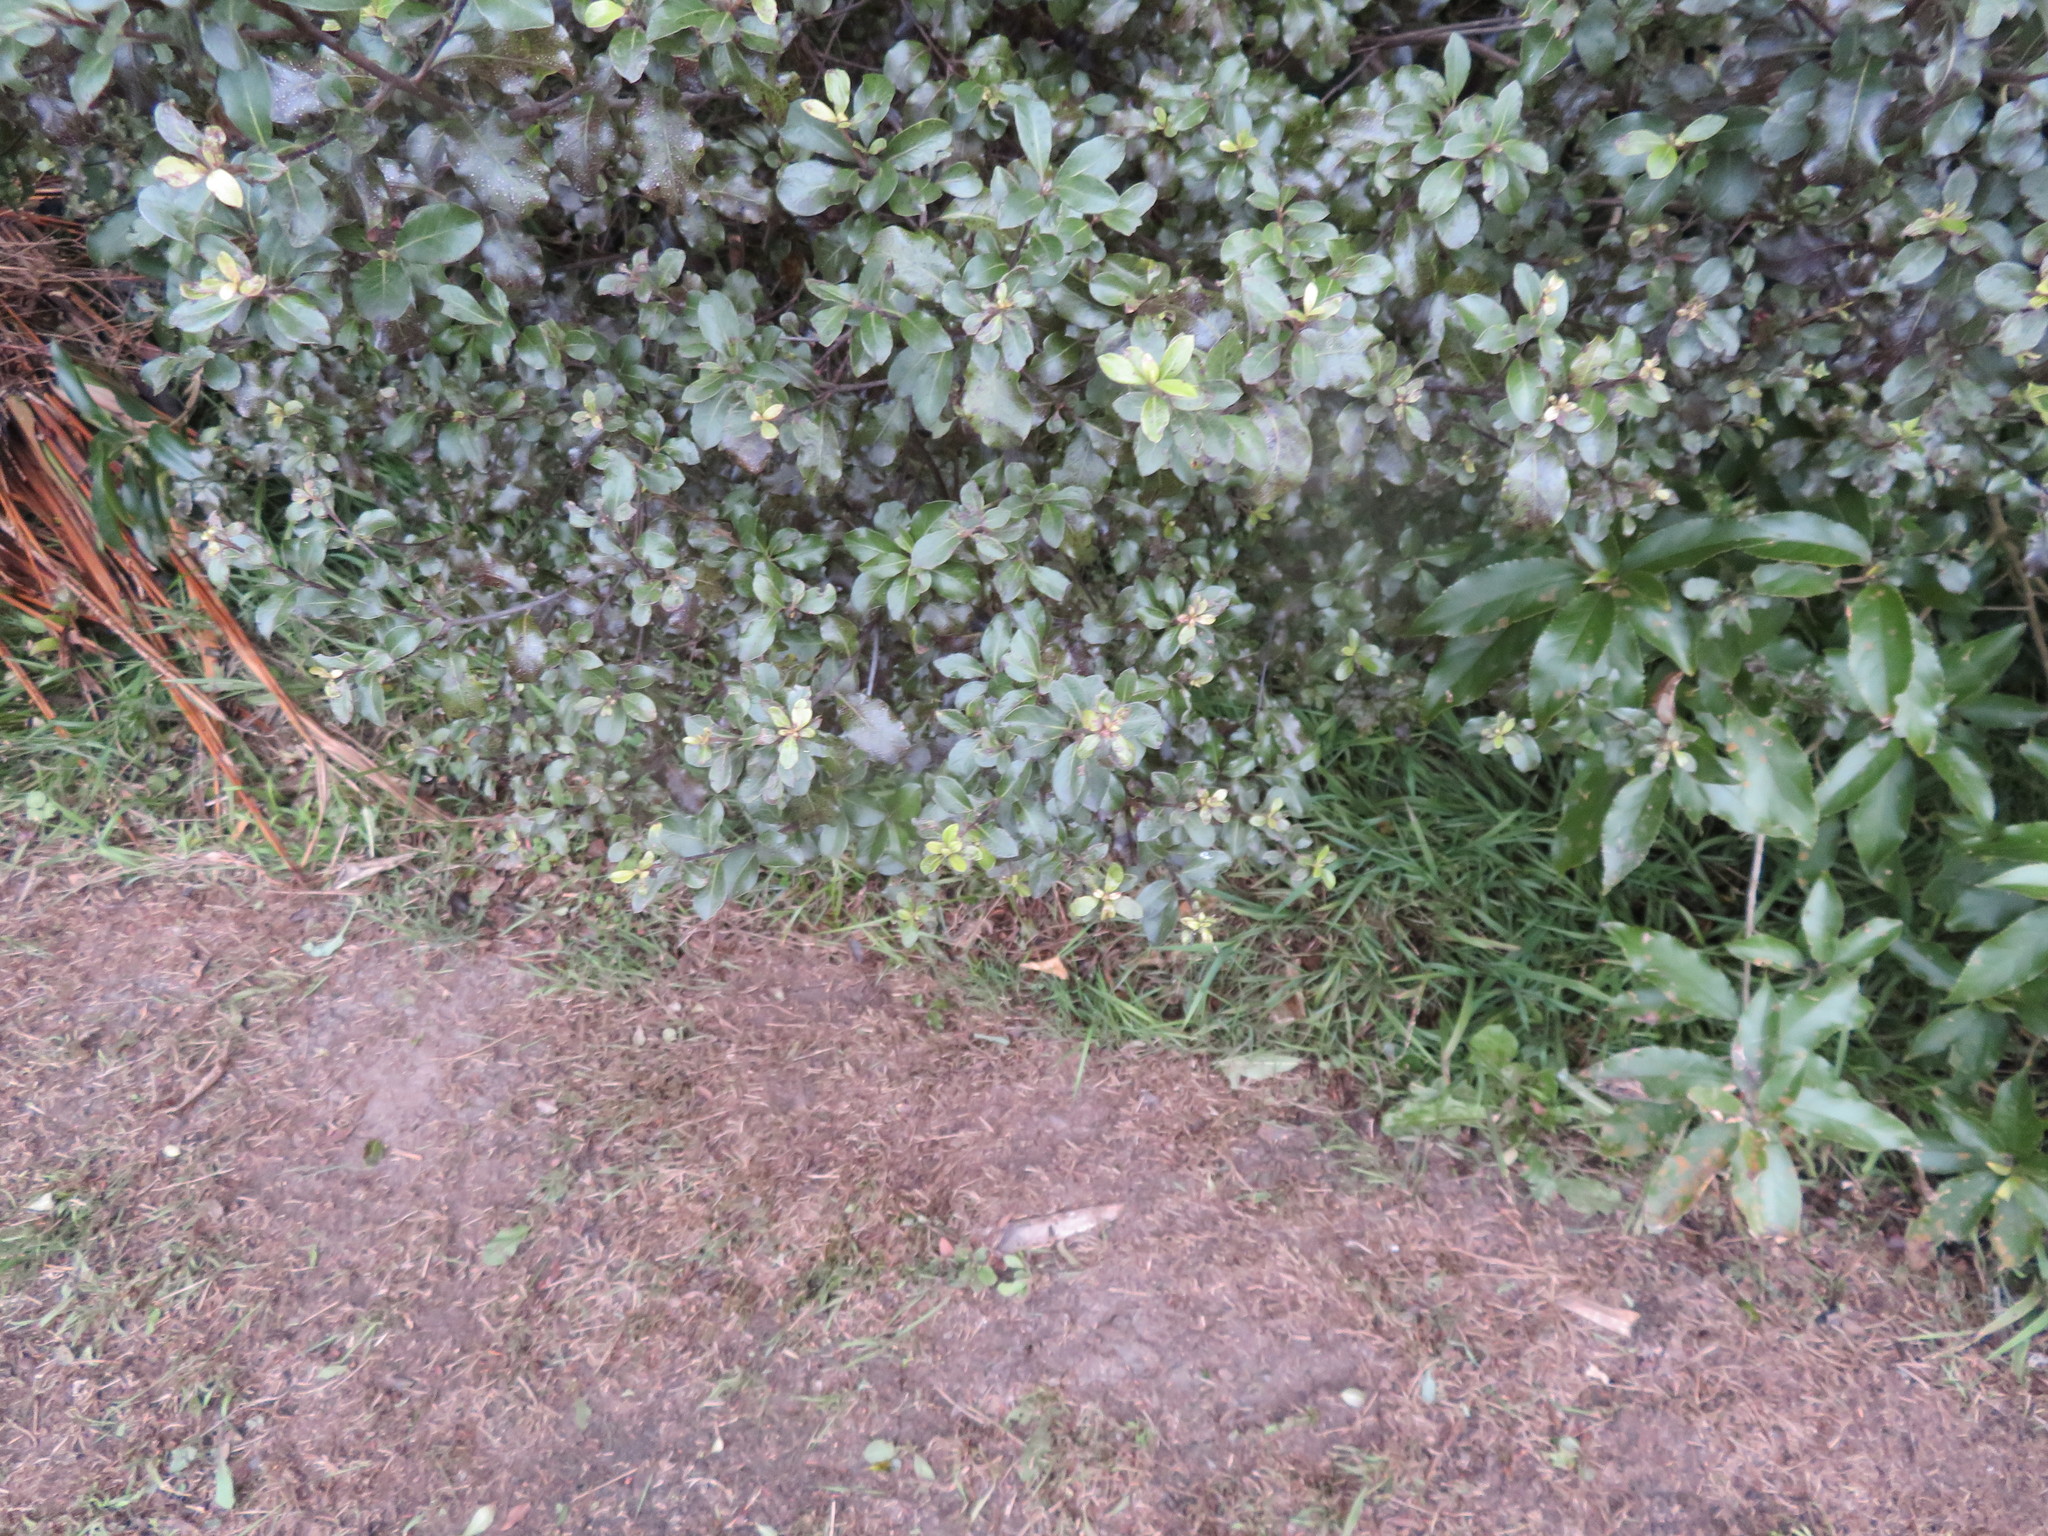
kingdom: Plantae
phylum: Tracheophyta
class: Magnoliopsida
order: Apiales
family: Pittosporaceae
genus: Pittosporum
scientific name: Pittosporum tenuifolium
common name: Kohuhu
